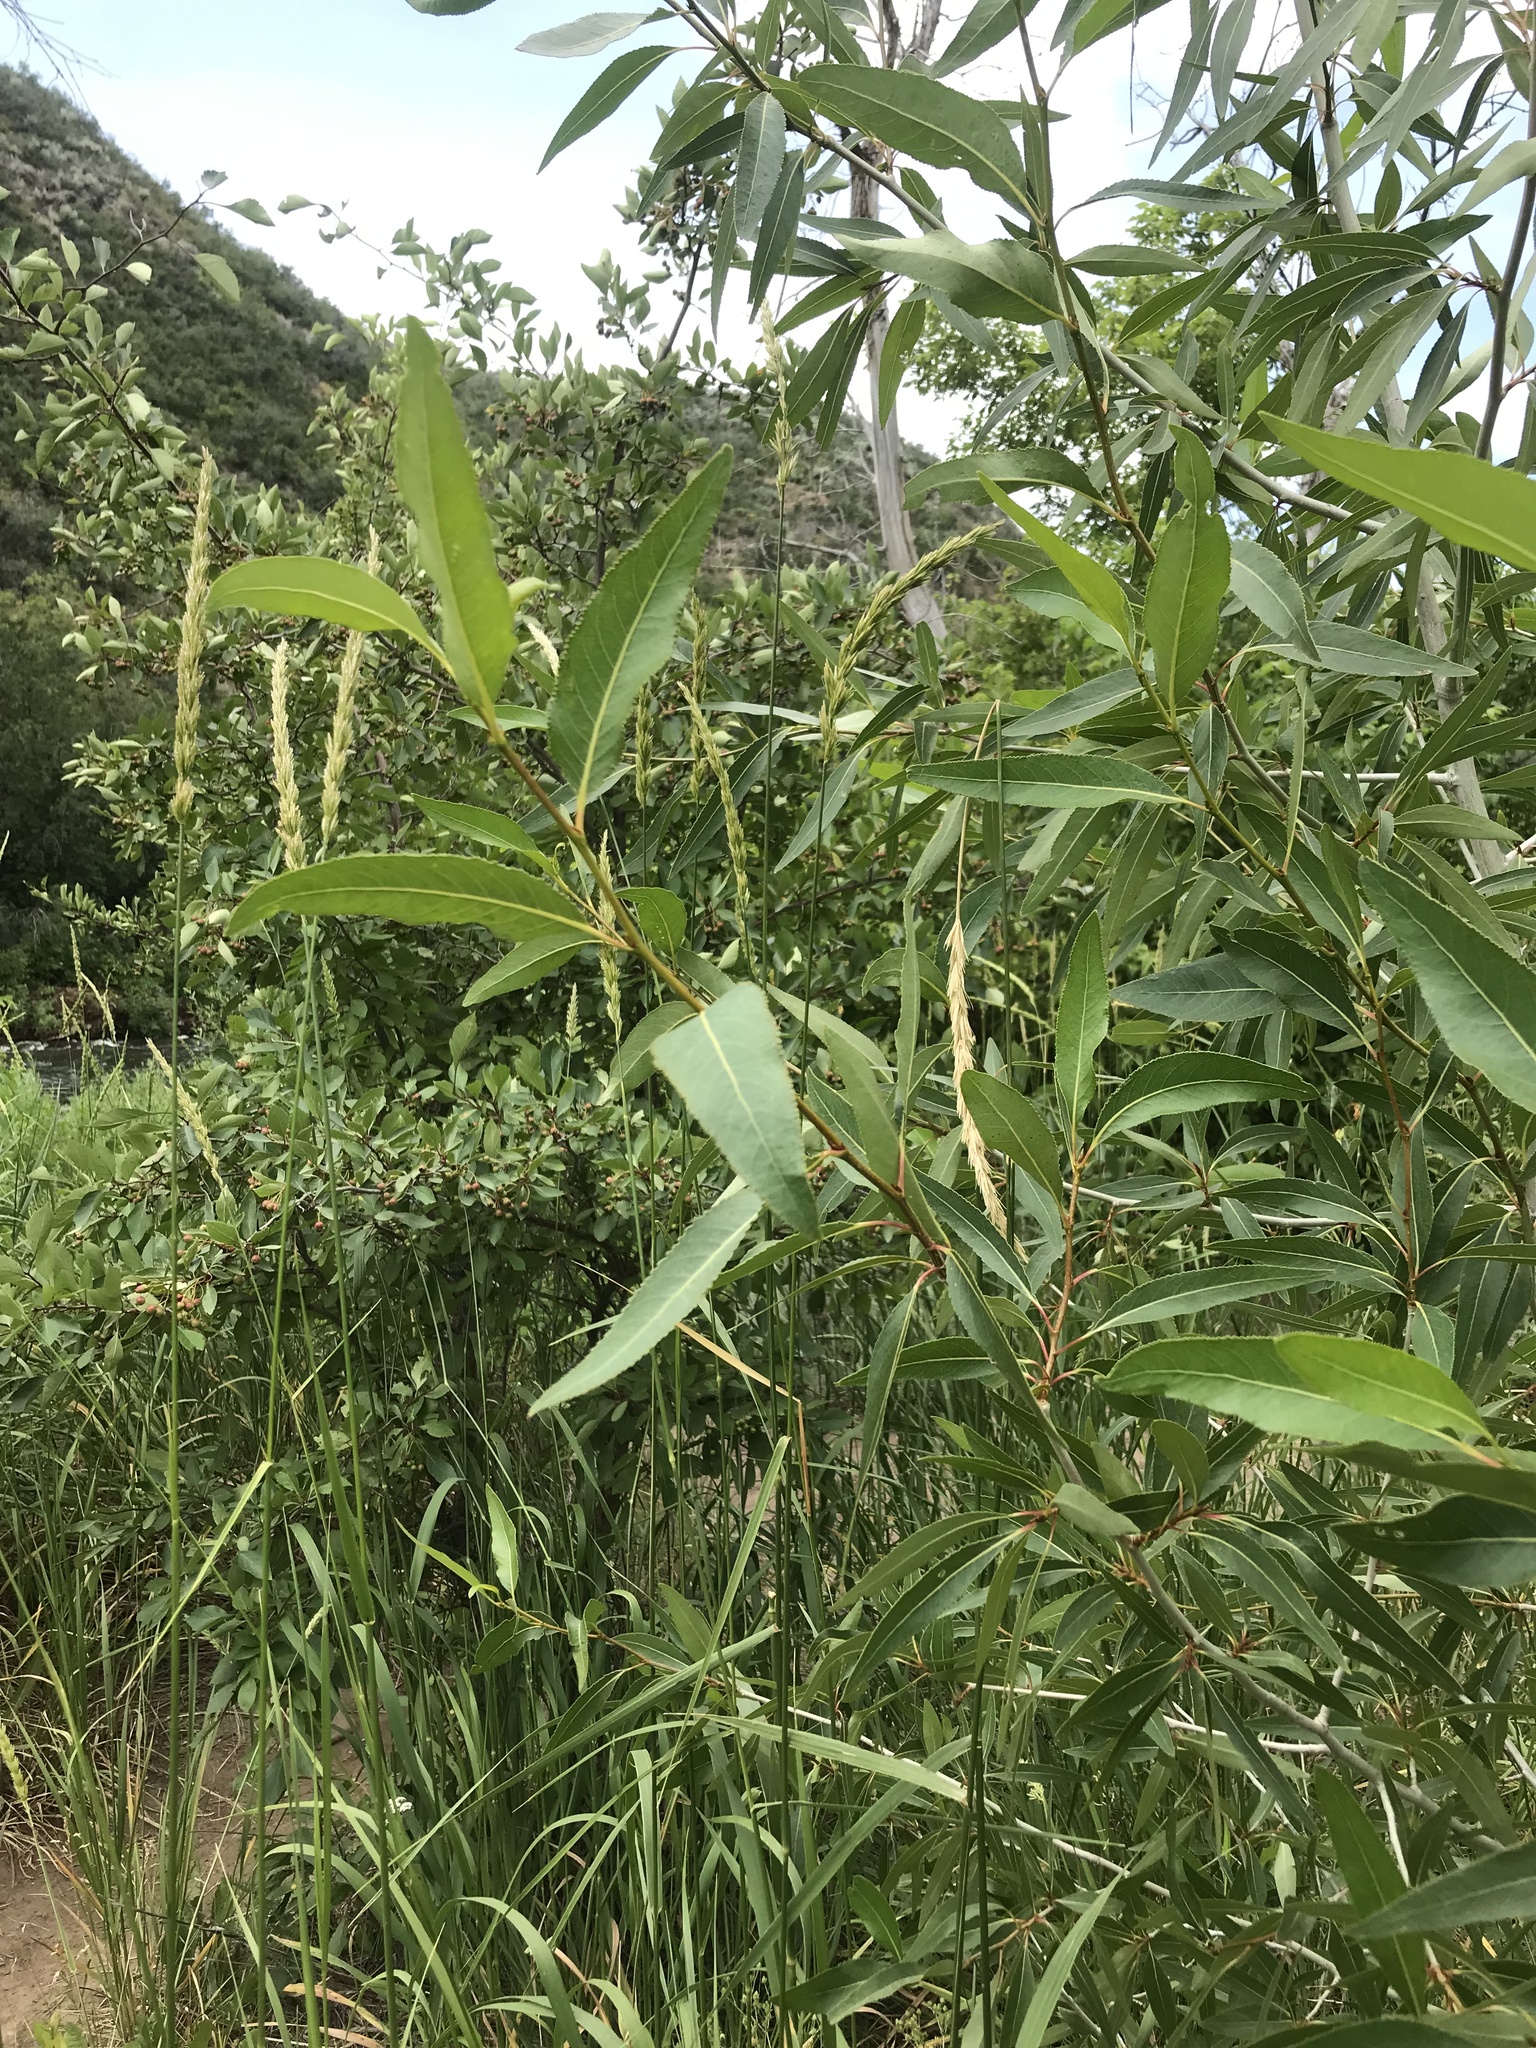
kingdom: Plantae
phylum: Tracheophyta
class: Magnoliopsida
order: Malpighiales
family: Salicaceae
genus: Populus
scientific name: Populus angustifolia
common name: Willow cottonwood
